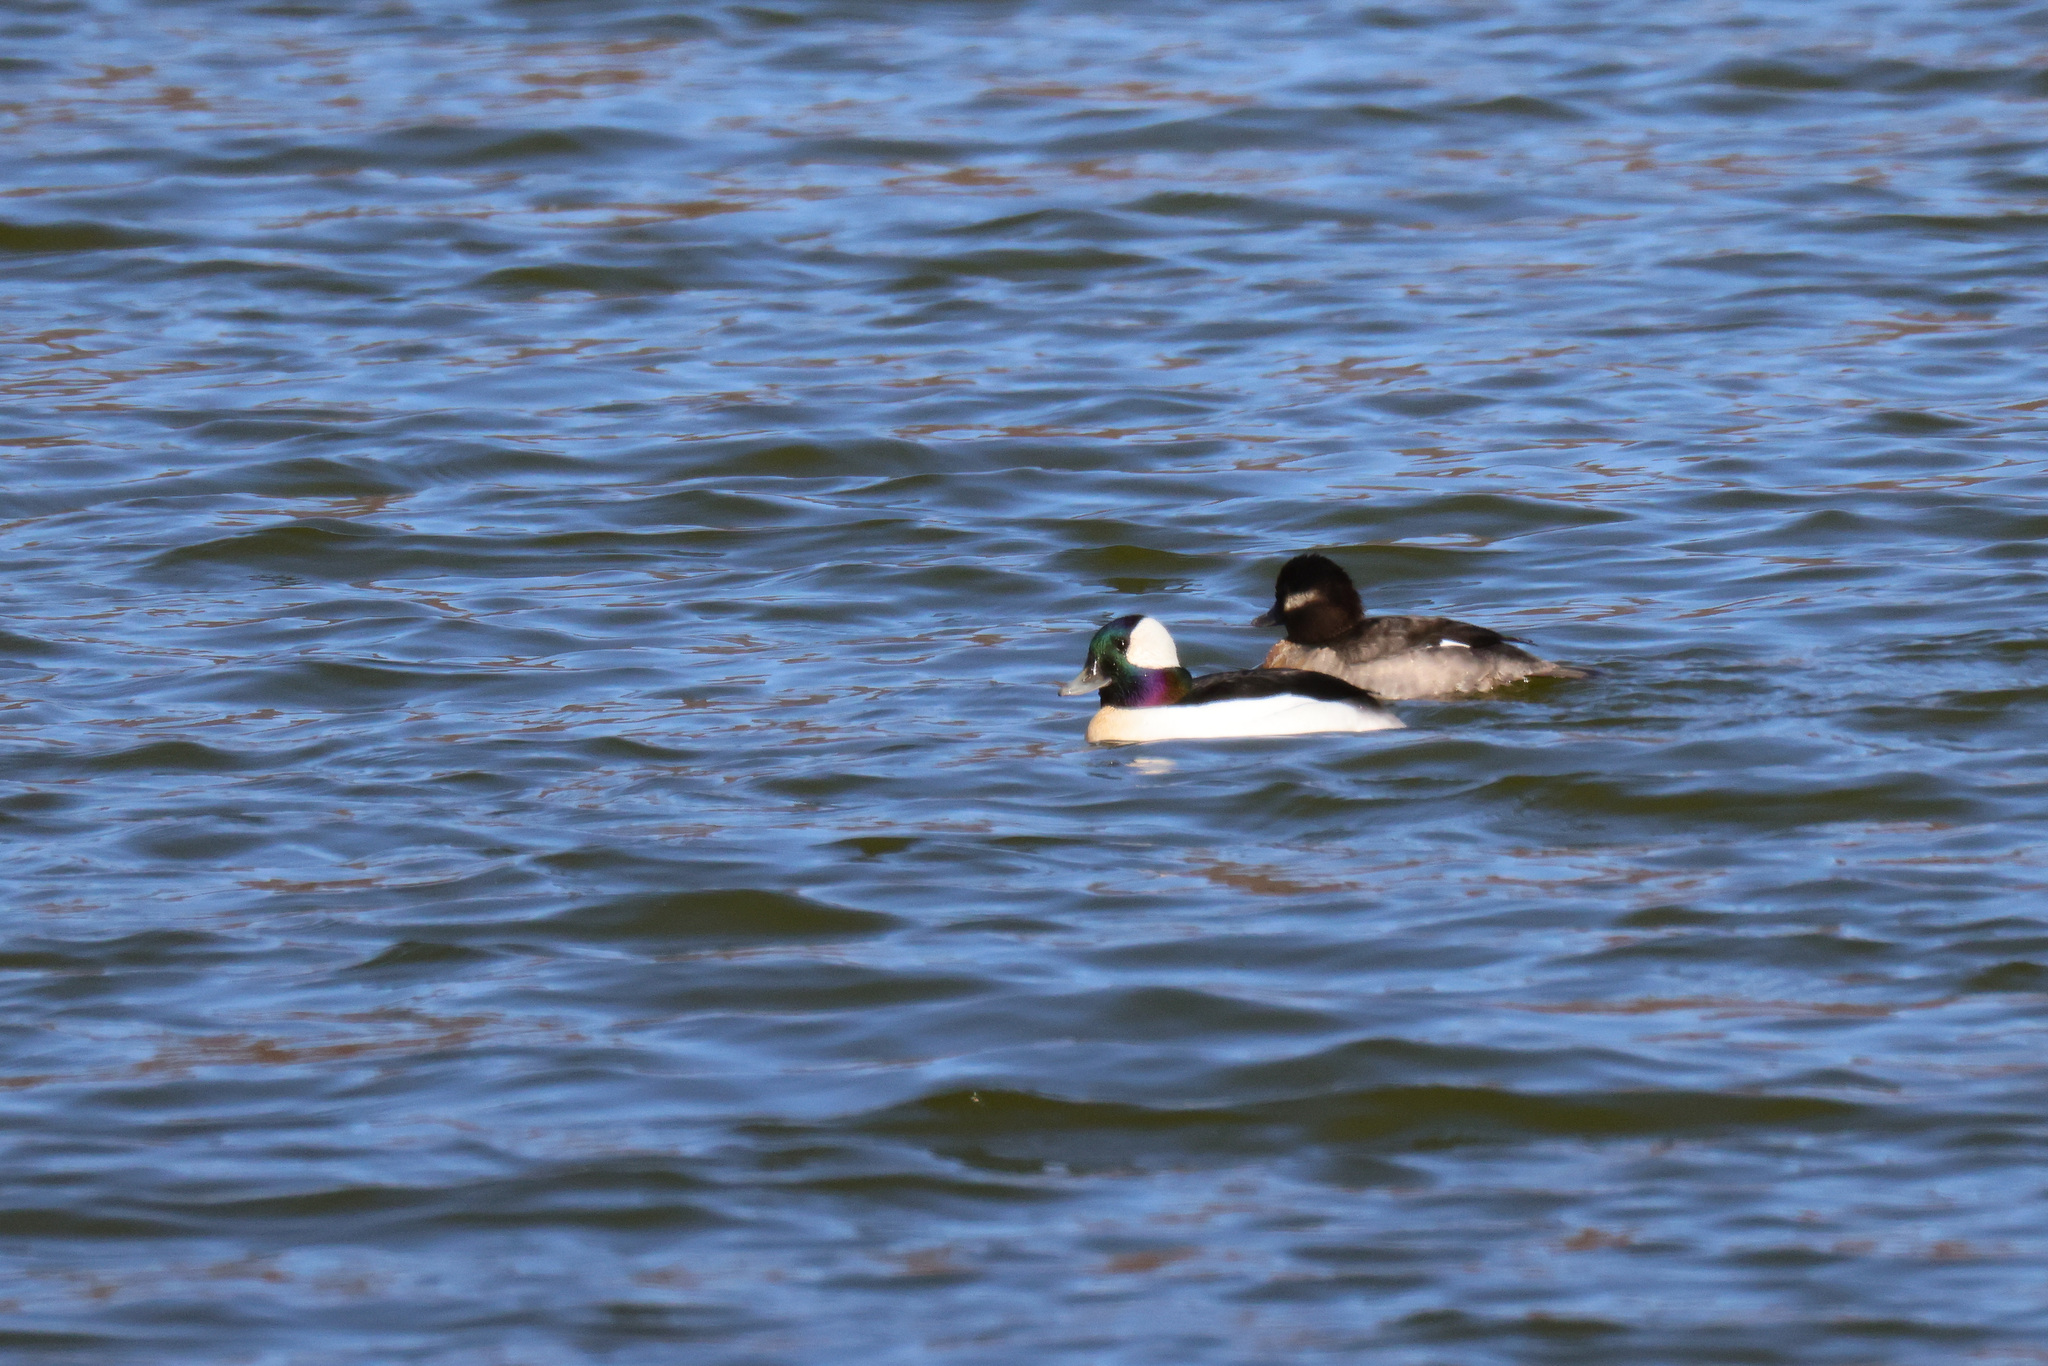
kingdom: Animalia
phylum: Chordata
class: Aves
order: Anseriformes
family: Anatidae
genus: Bucephala
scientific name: Bucephala albeola
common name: Bufflehead
